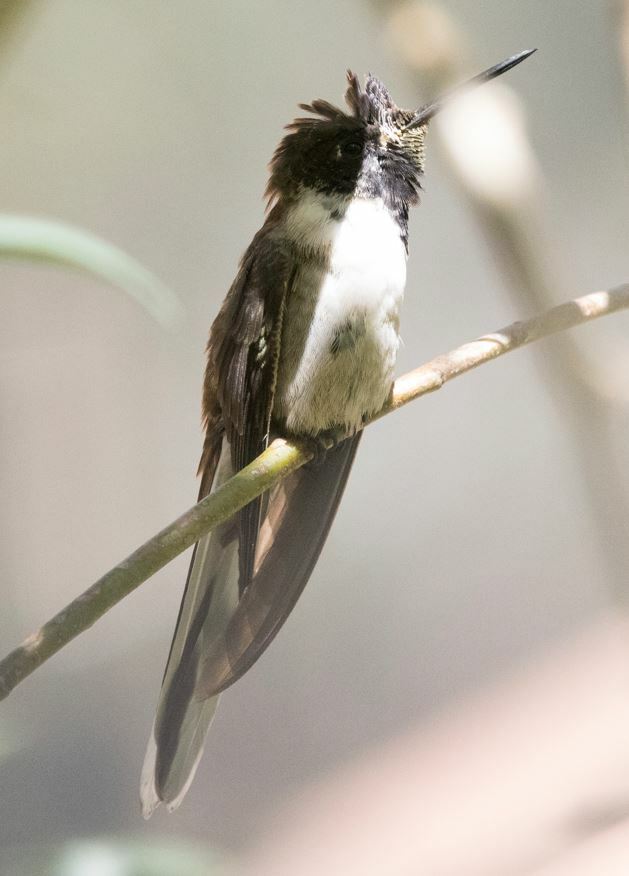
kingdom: Animalia
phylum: Chordata
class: Aves
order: Apodiformes
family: Trochilidae
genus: Oreonympha
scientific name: Oreonympha nobilis
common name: Bearded mountaineer
